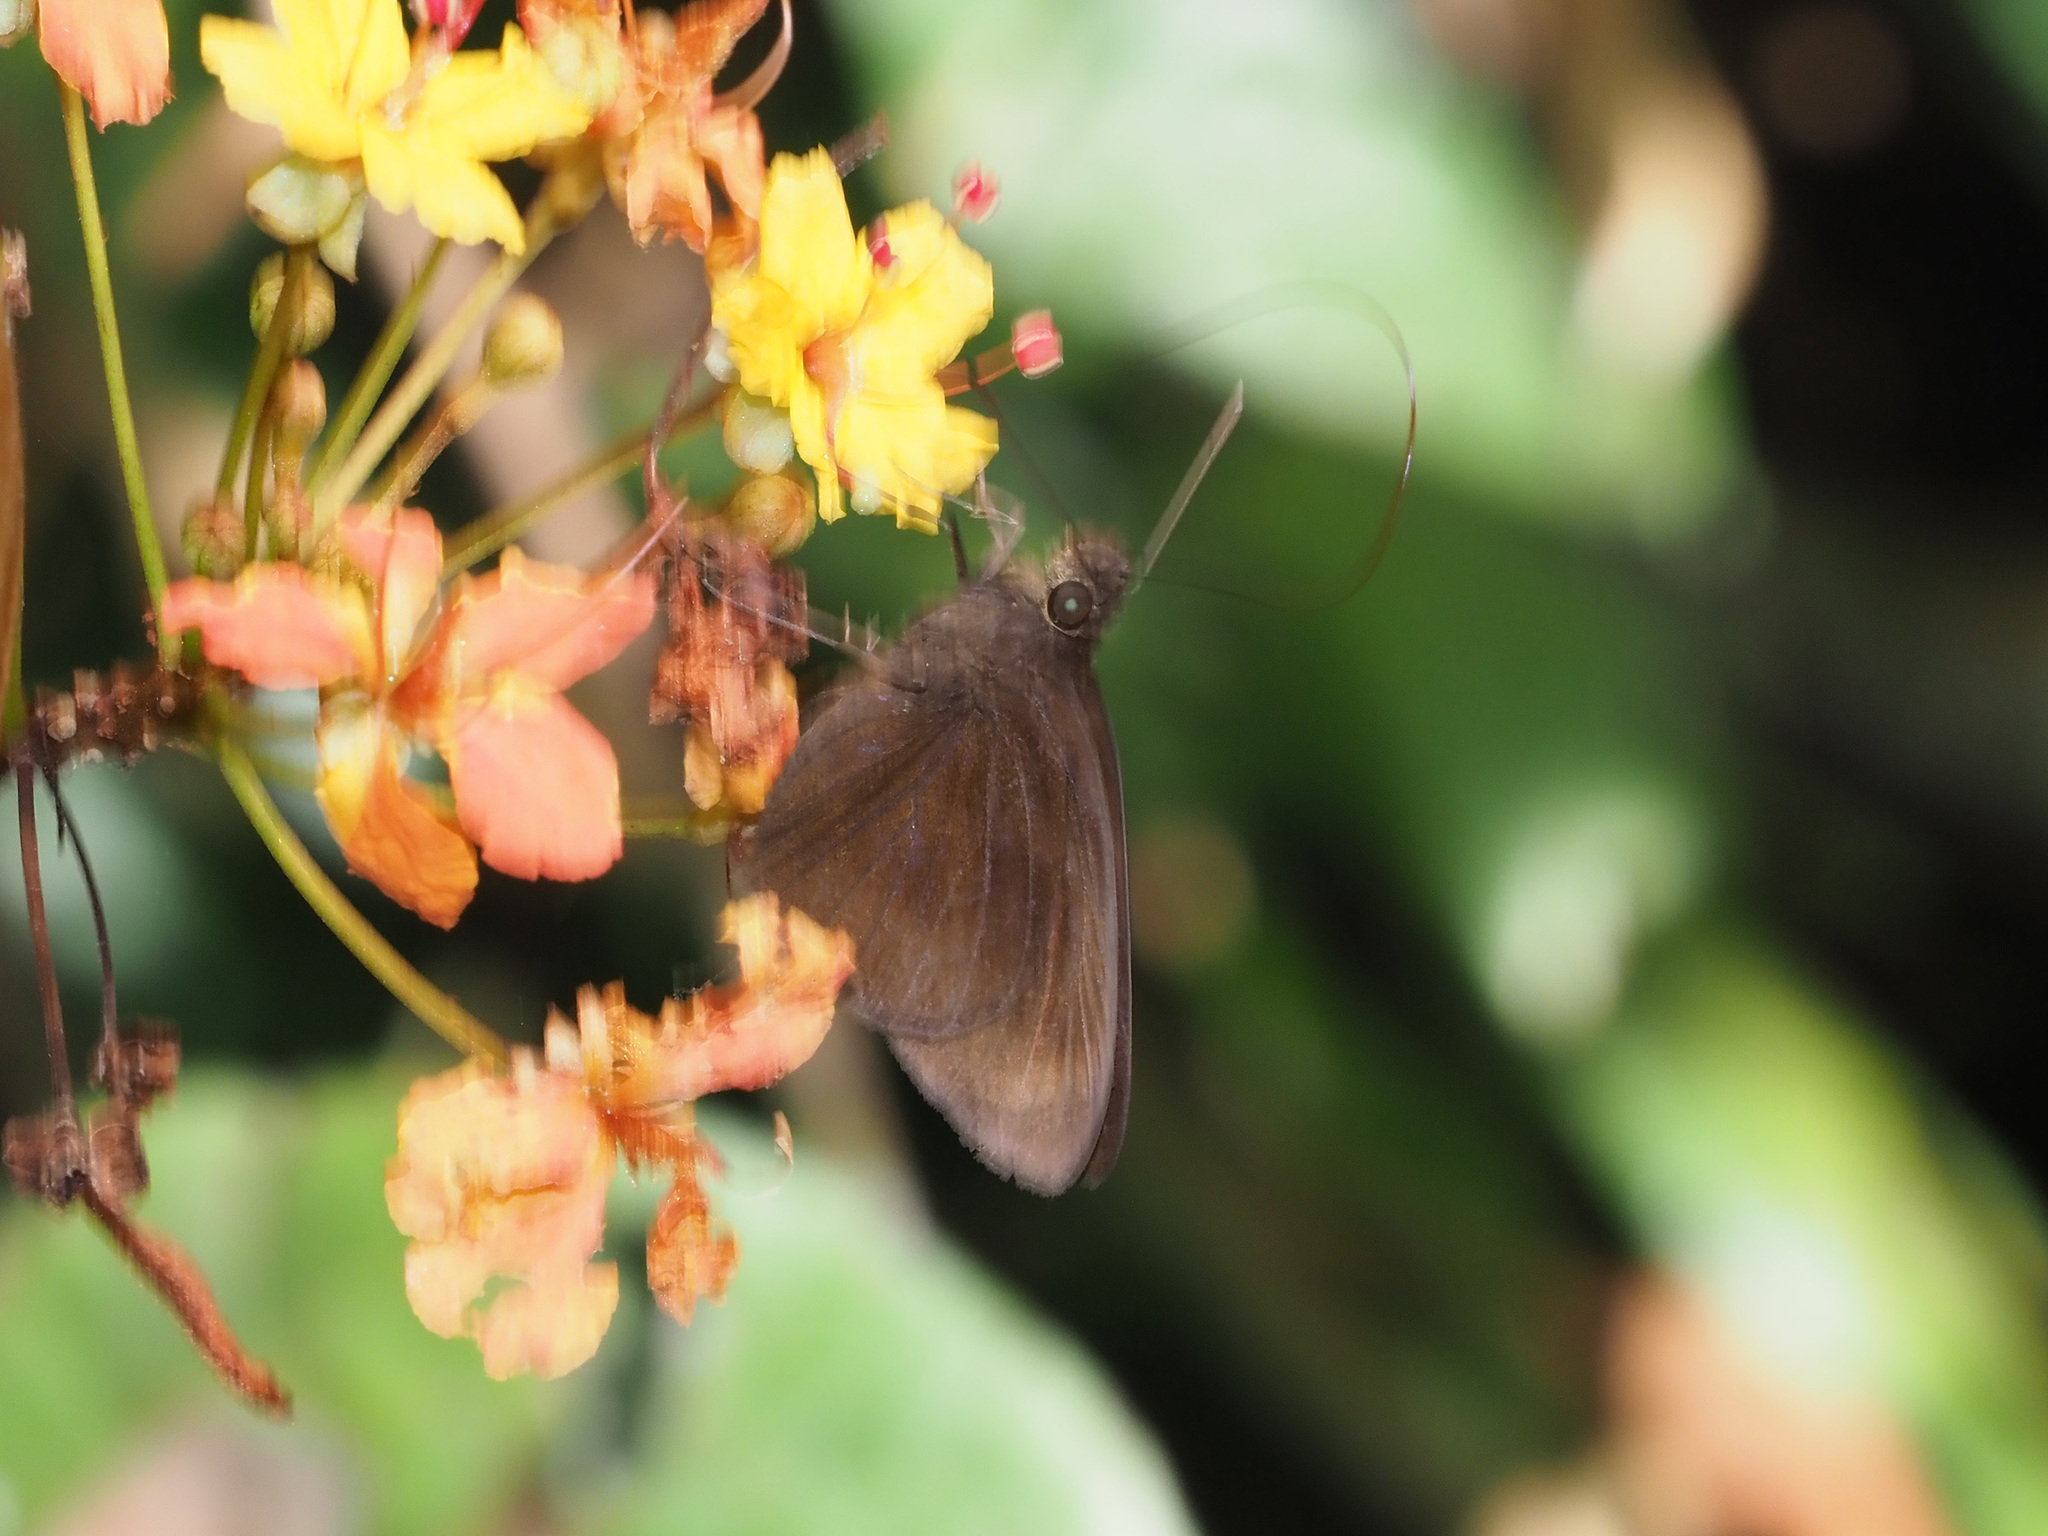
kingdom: Animalia
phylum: Arthropoda
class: Insecta
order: Lepidoptera
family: Hesperiidae
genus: Ancistroides
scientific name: Ancistroides nigrita
